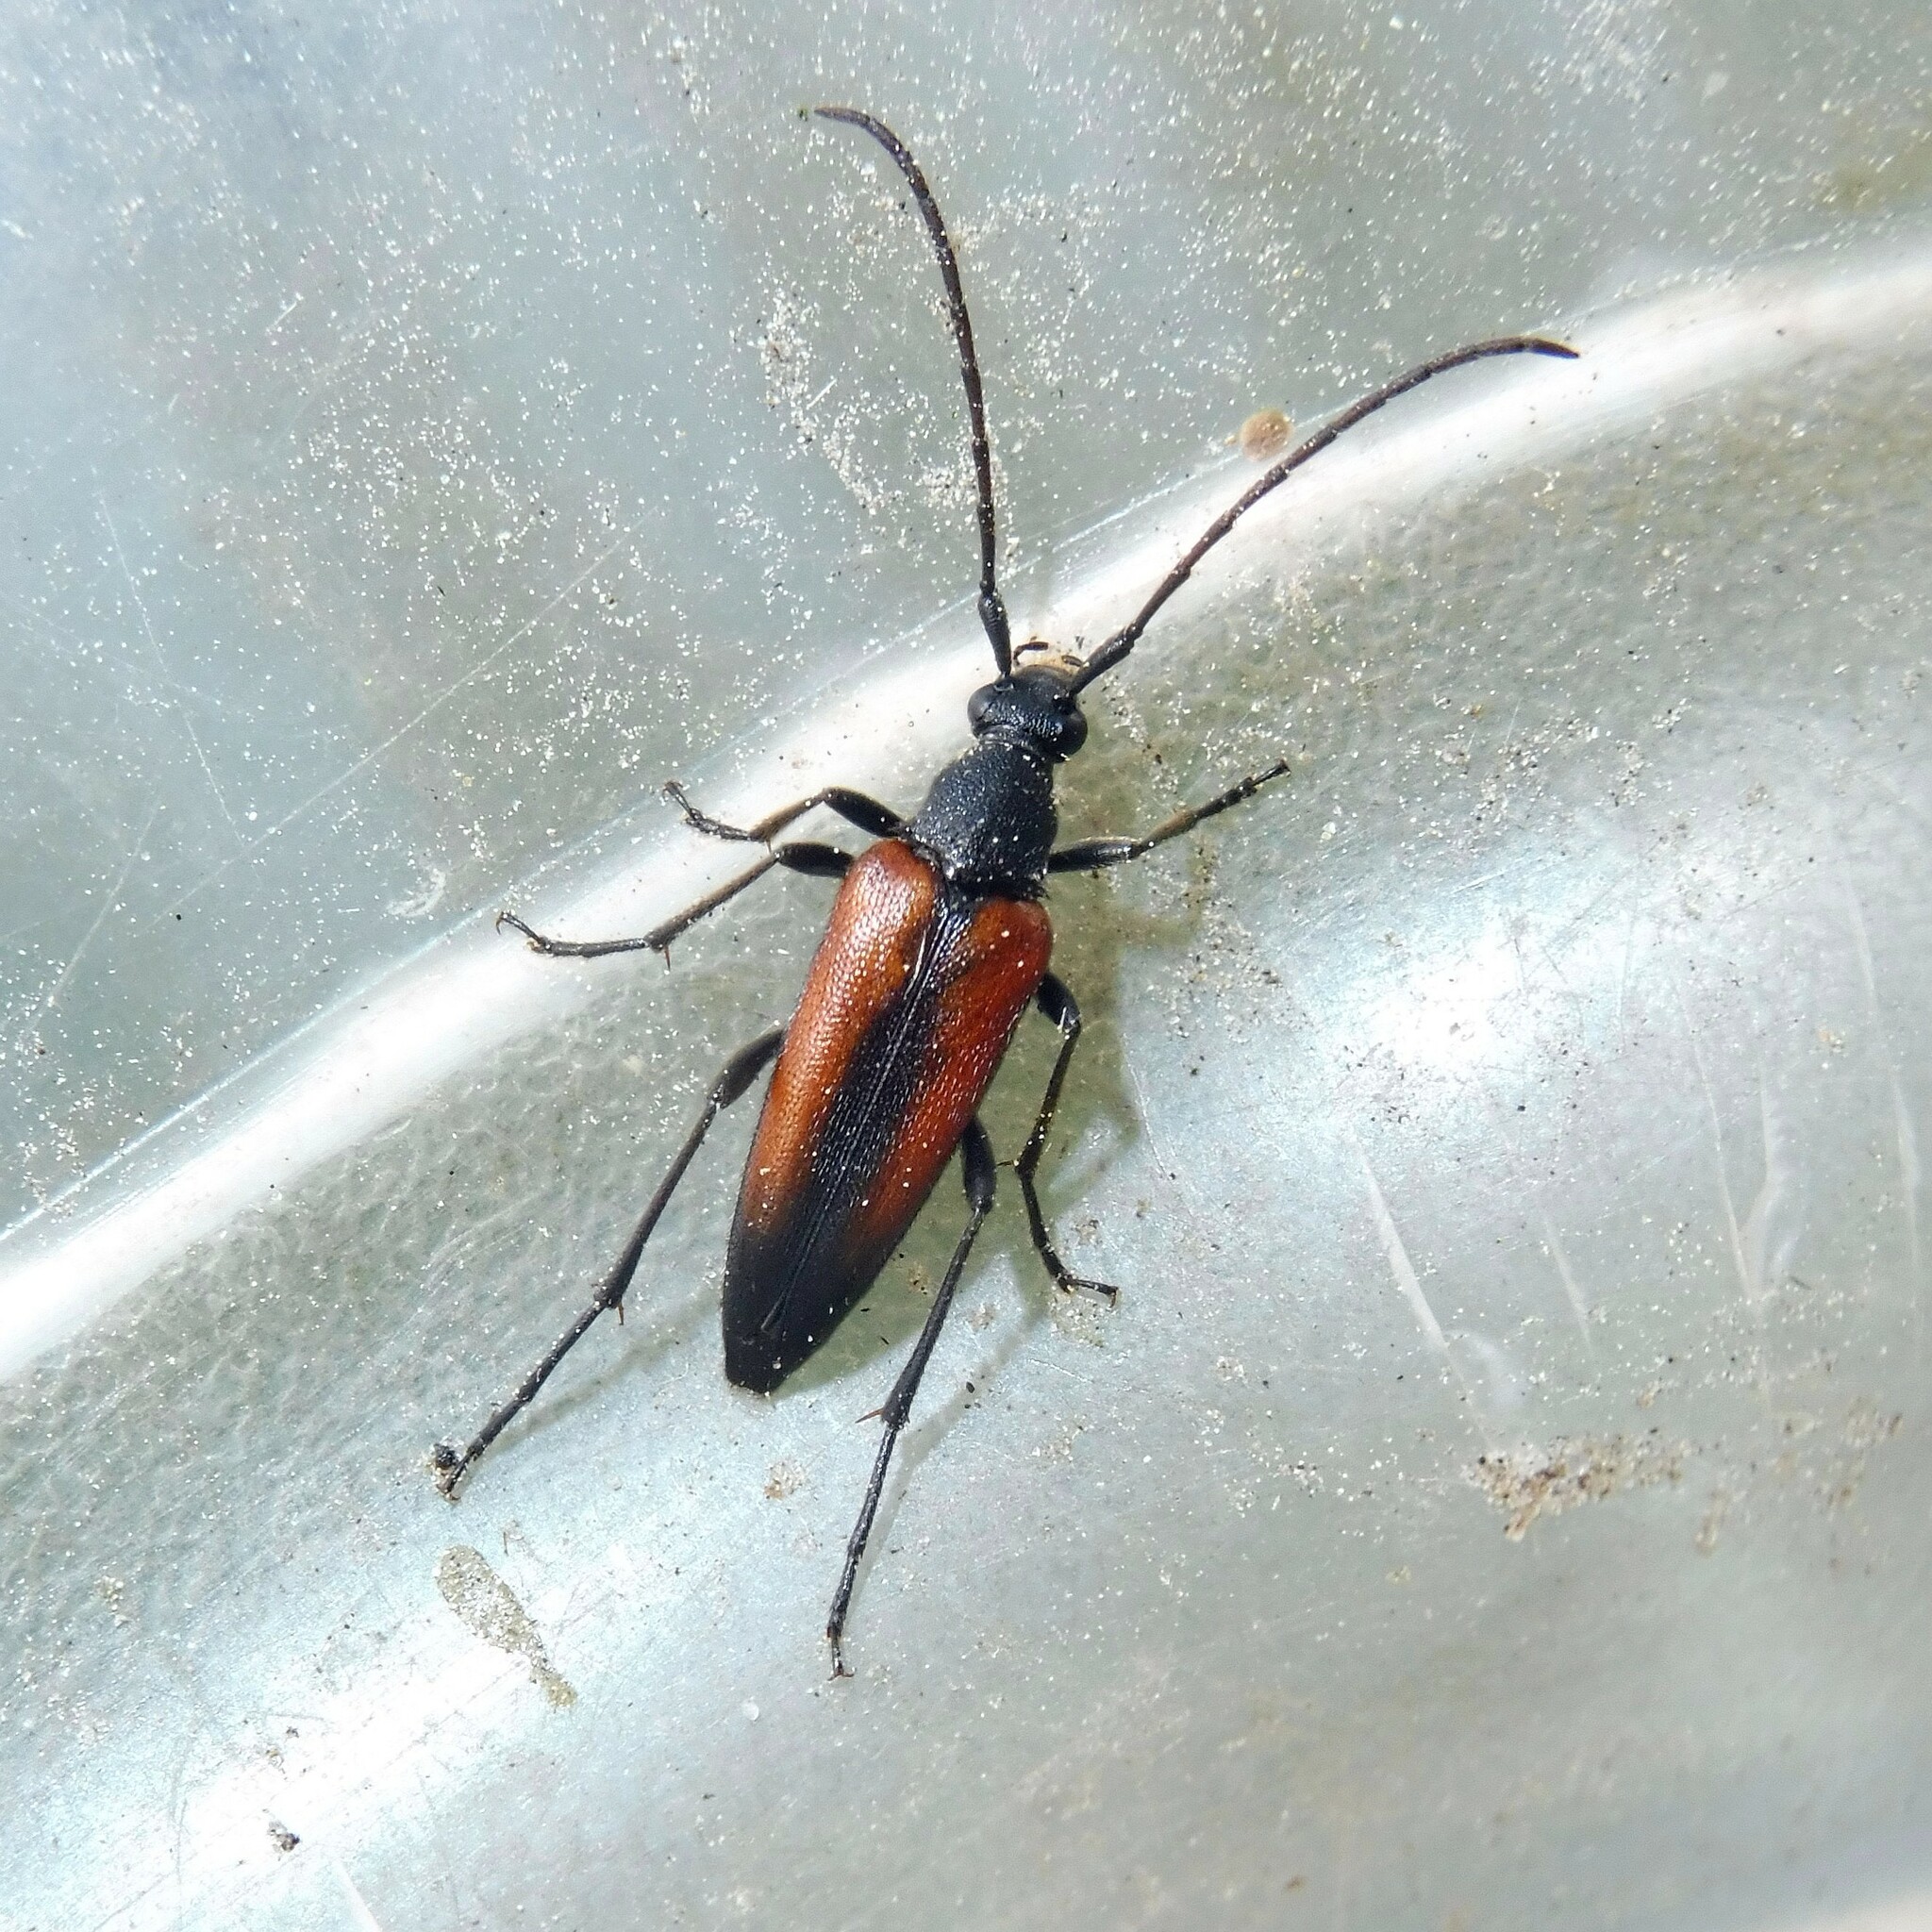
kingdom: Animalia
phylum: Arthropoda
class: Insecta
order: Coleoptera
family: Cerambycidae
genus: Stenurella
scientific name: Stenurella melanura
